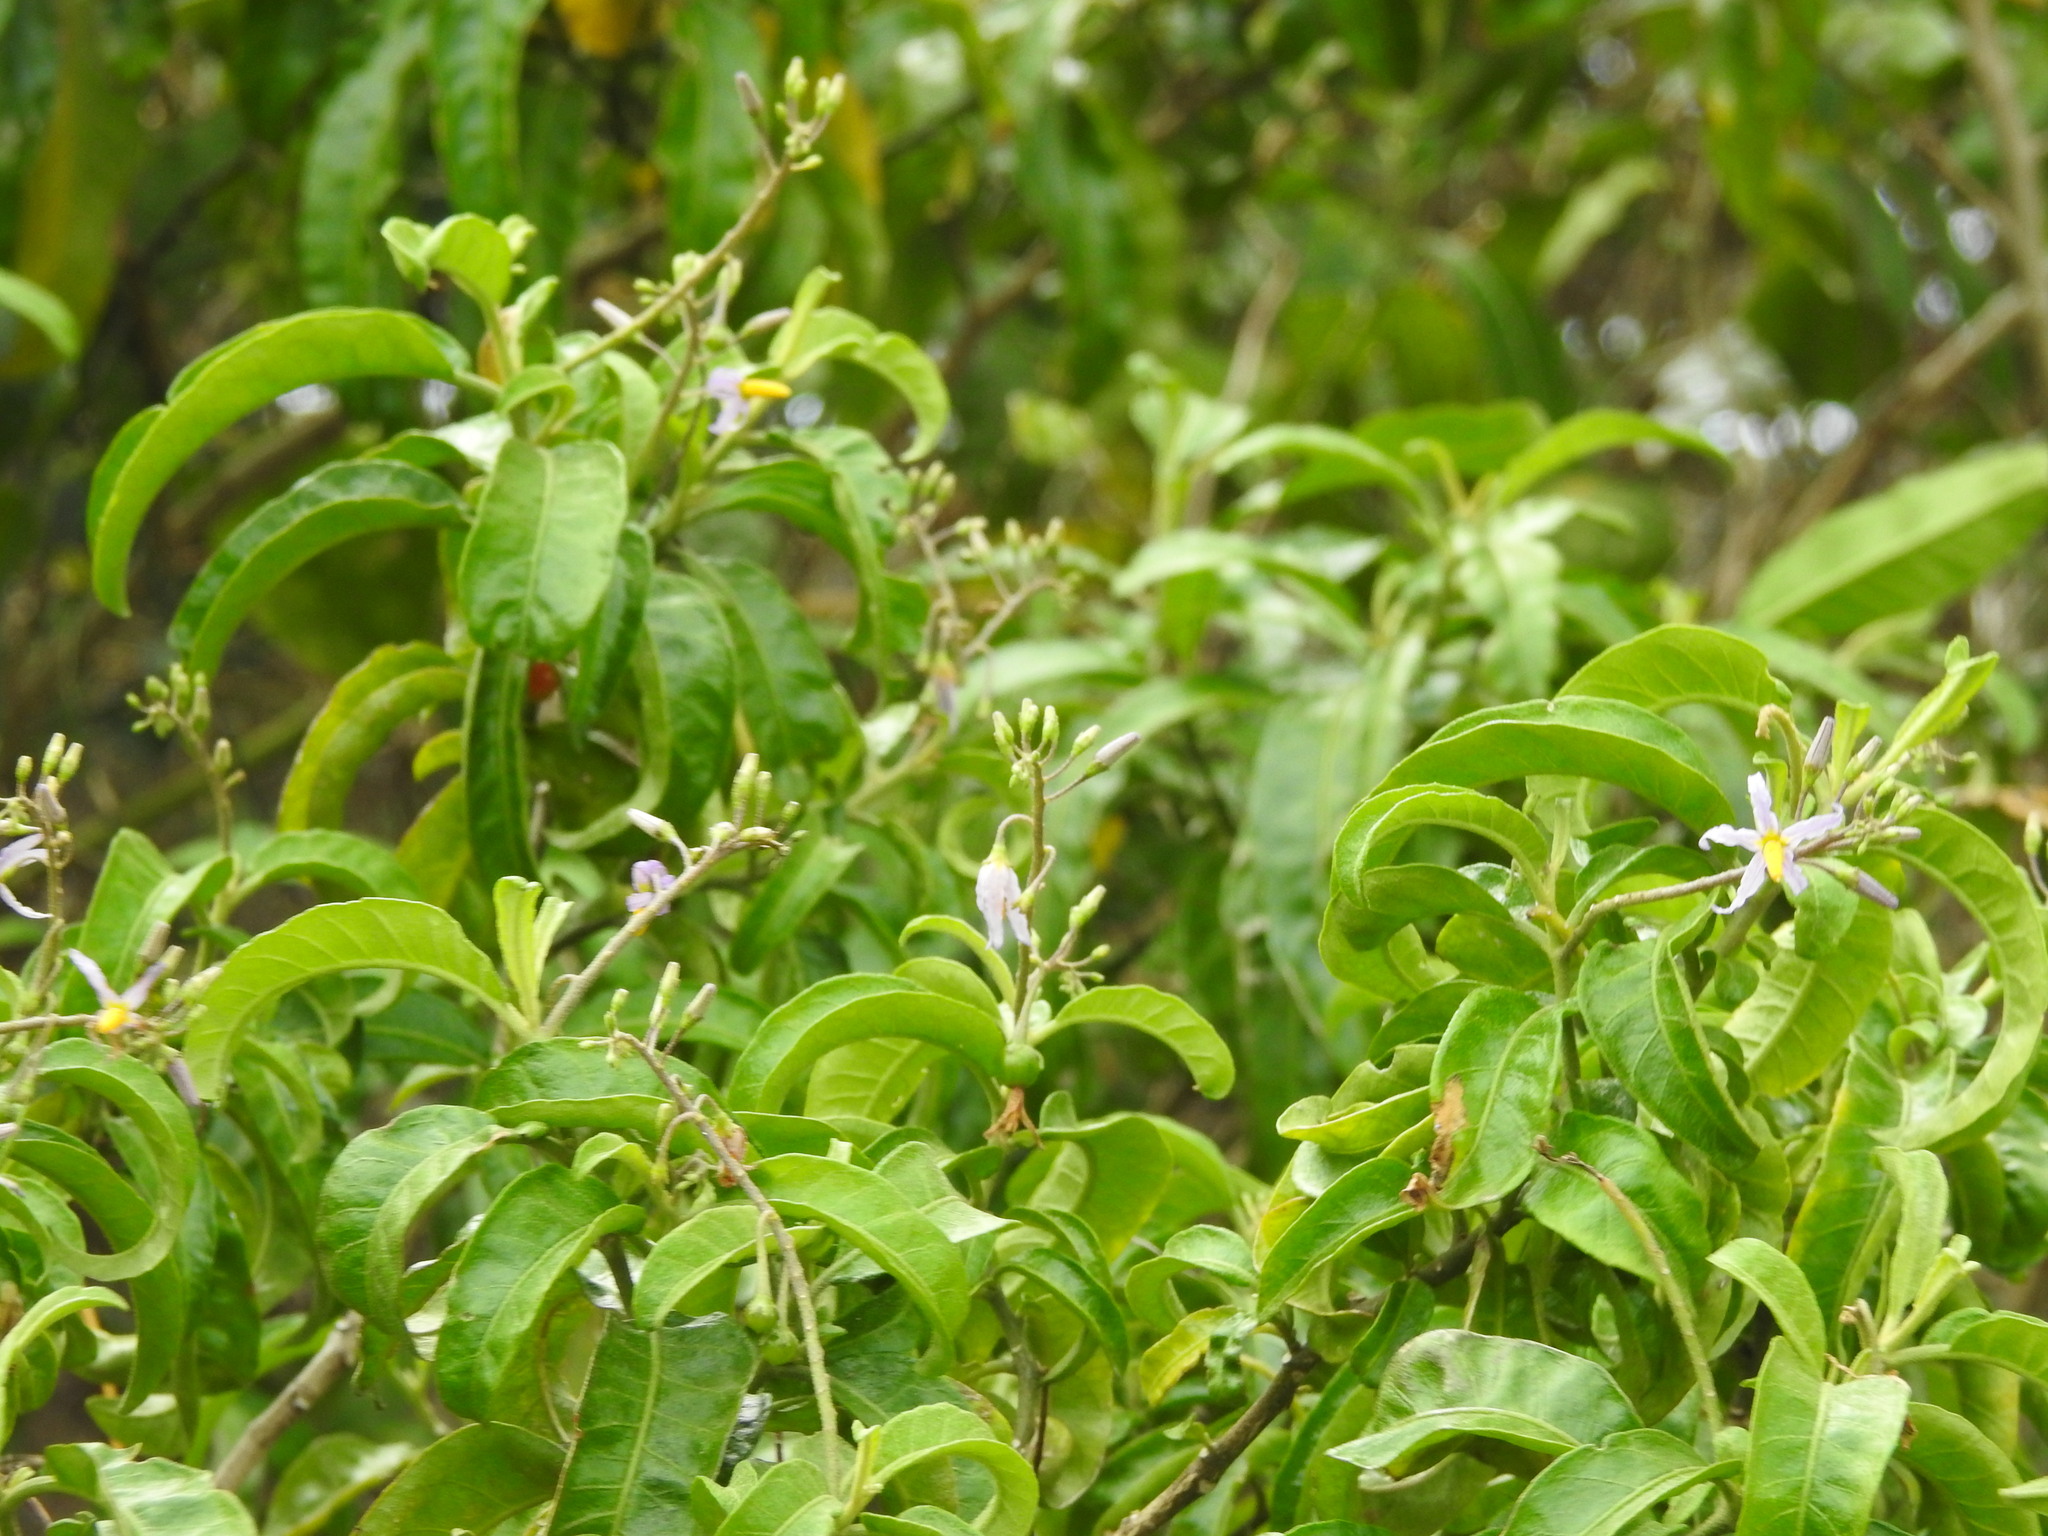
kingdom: Plantae
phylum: Tracheophyta
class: Magnoliopsida
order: Solanales
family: Solanaceae
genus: Solanum
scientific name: Solanum bahamense
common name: Canker-berry
